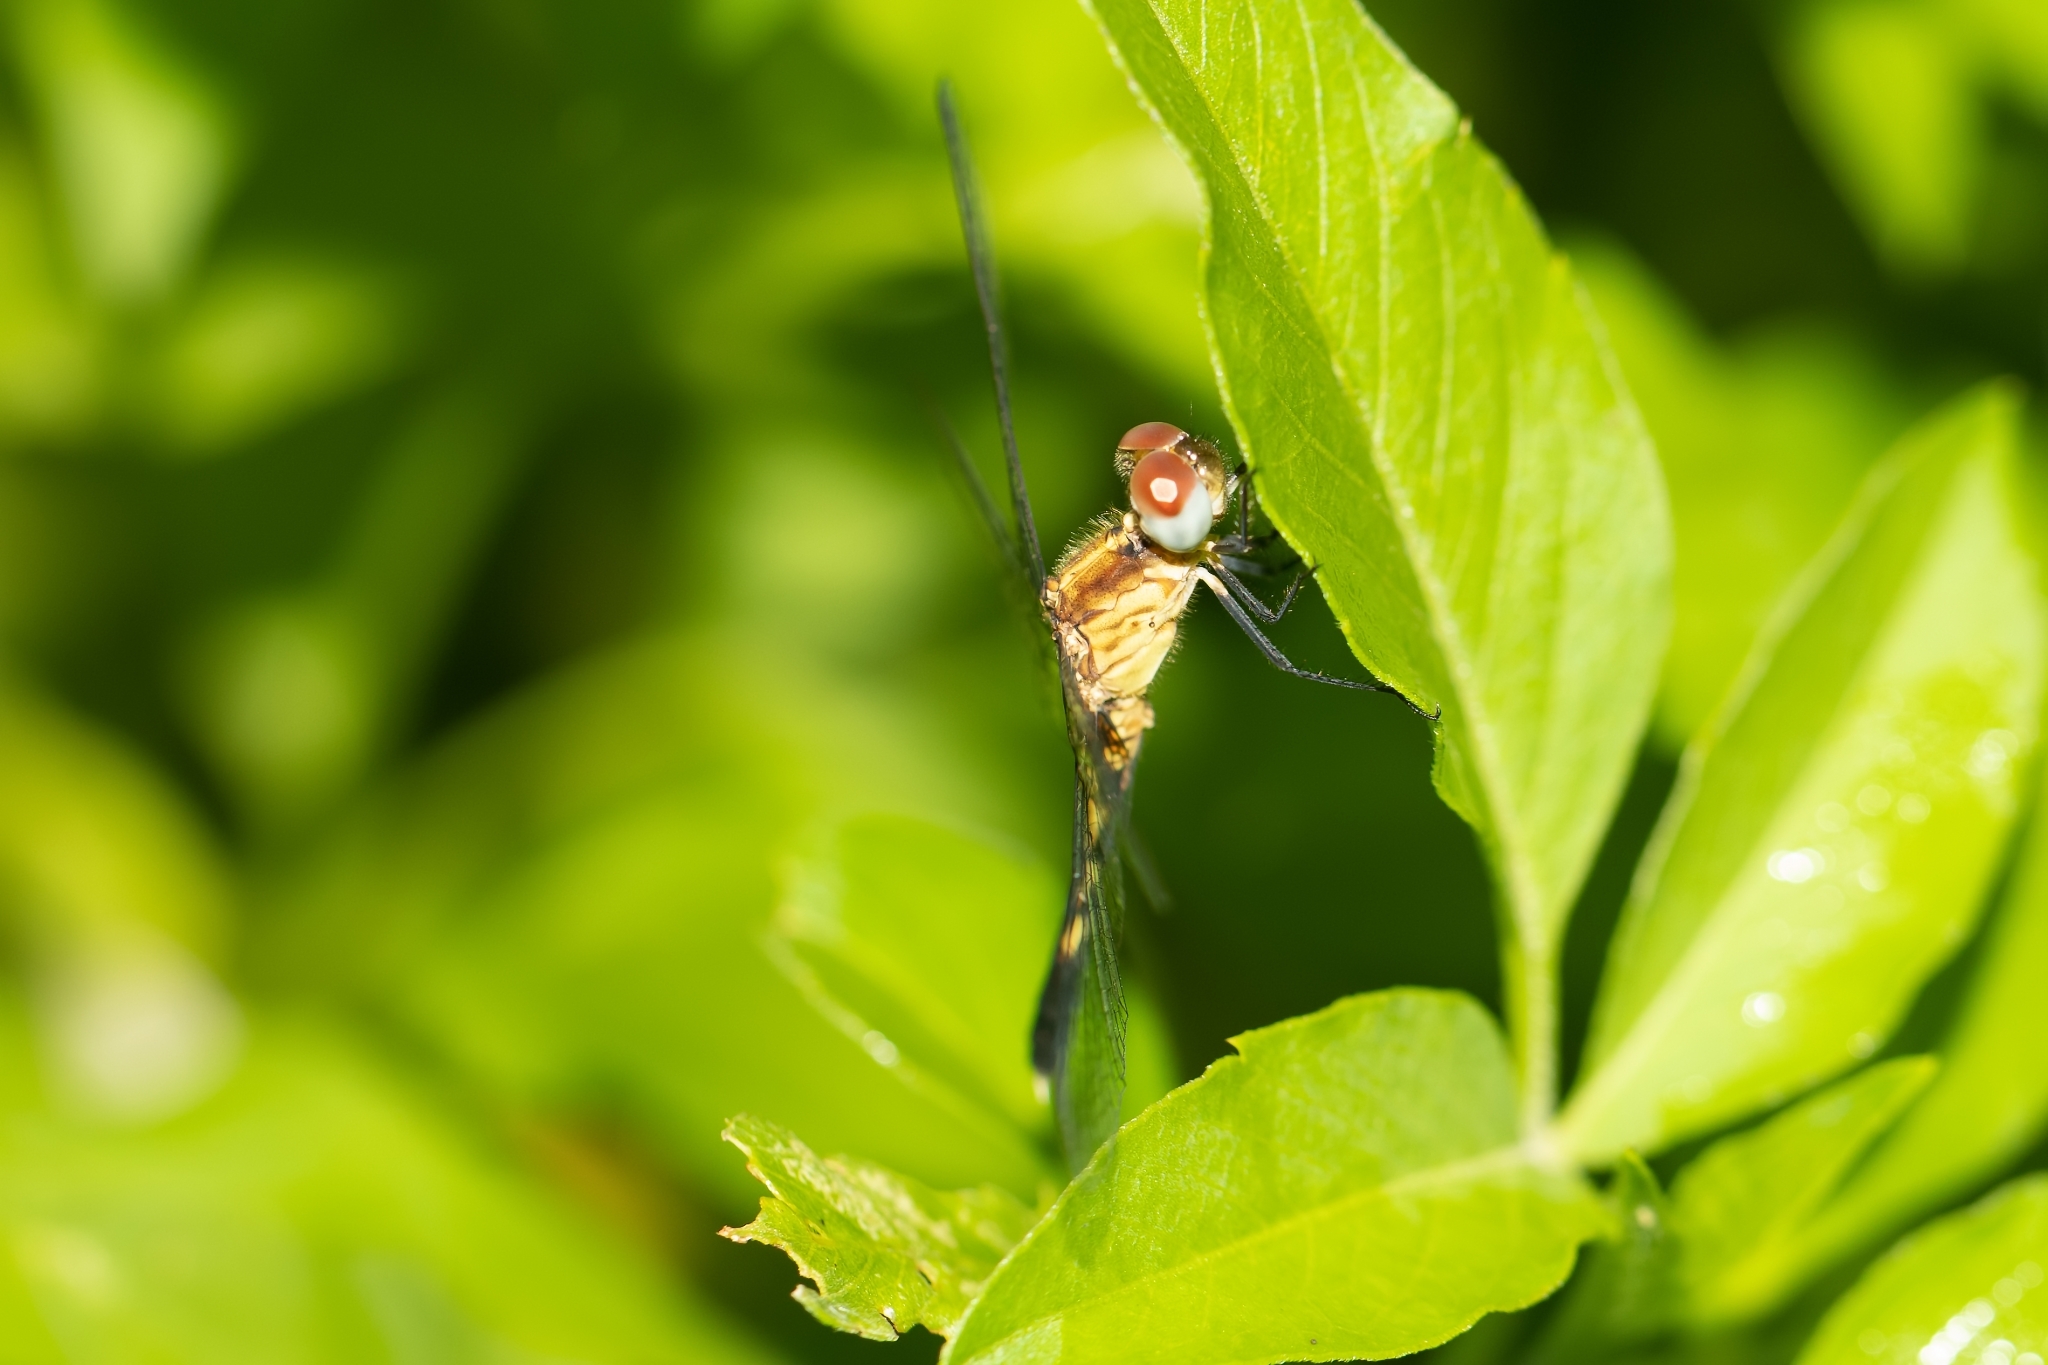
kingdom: Animalia
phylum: Arthropoda
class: Insecta
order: Odonata
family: Libellulidae
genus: Erythrodiplax
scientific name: Erythrodiplax minuscula
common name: Little blue dragonlet
